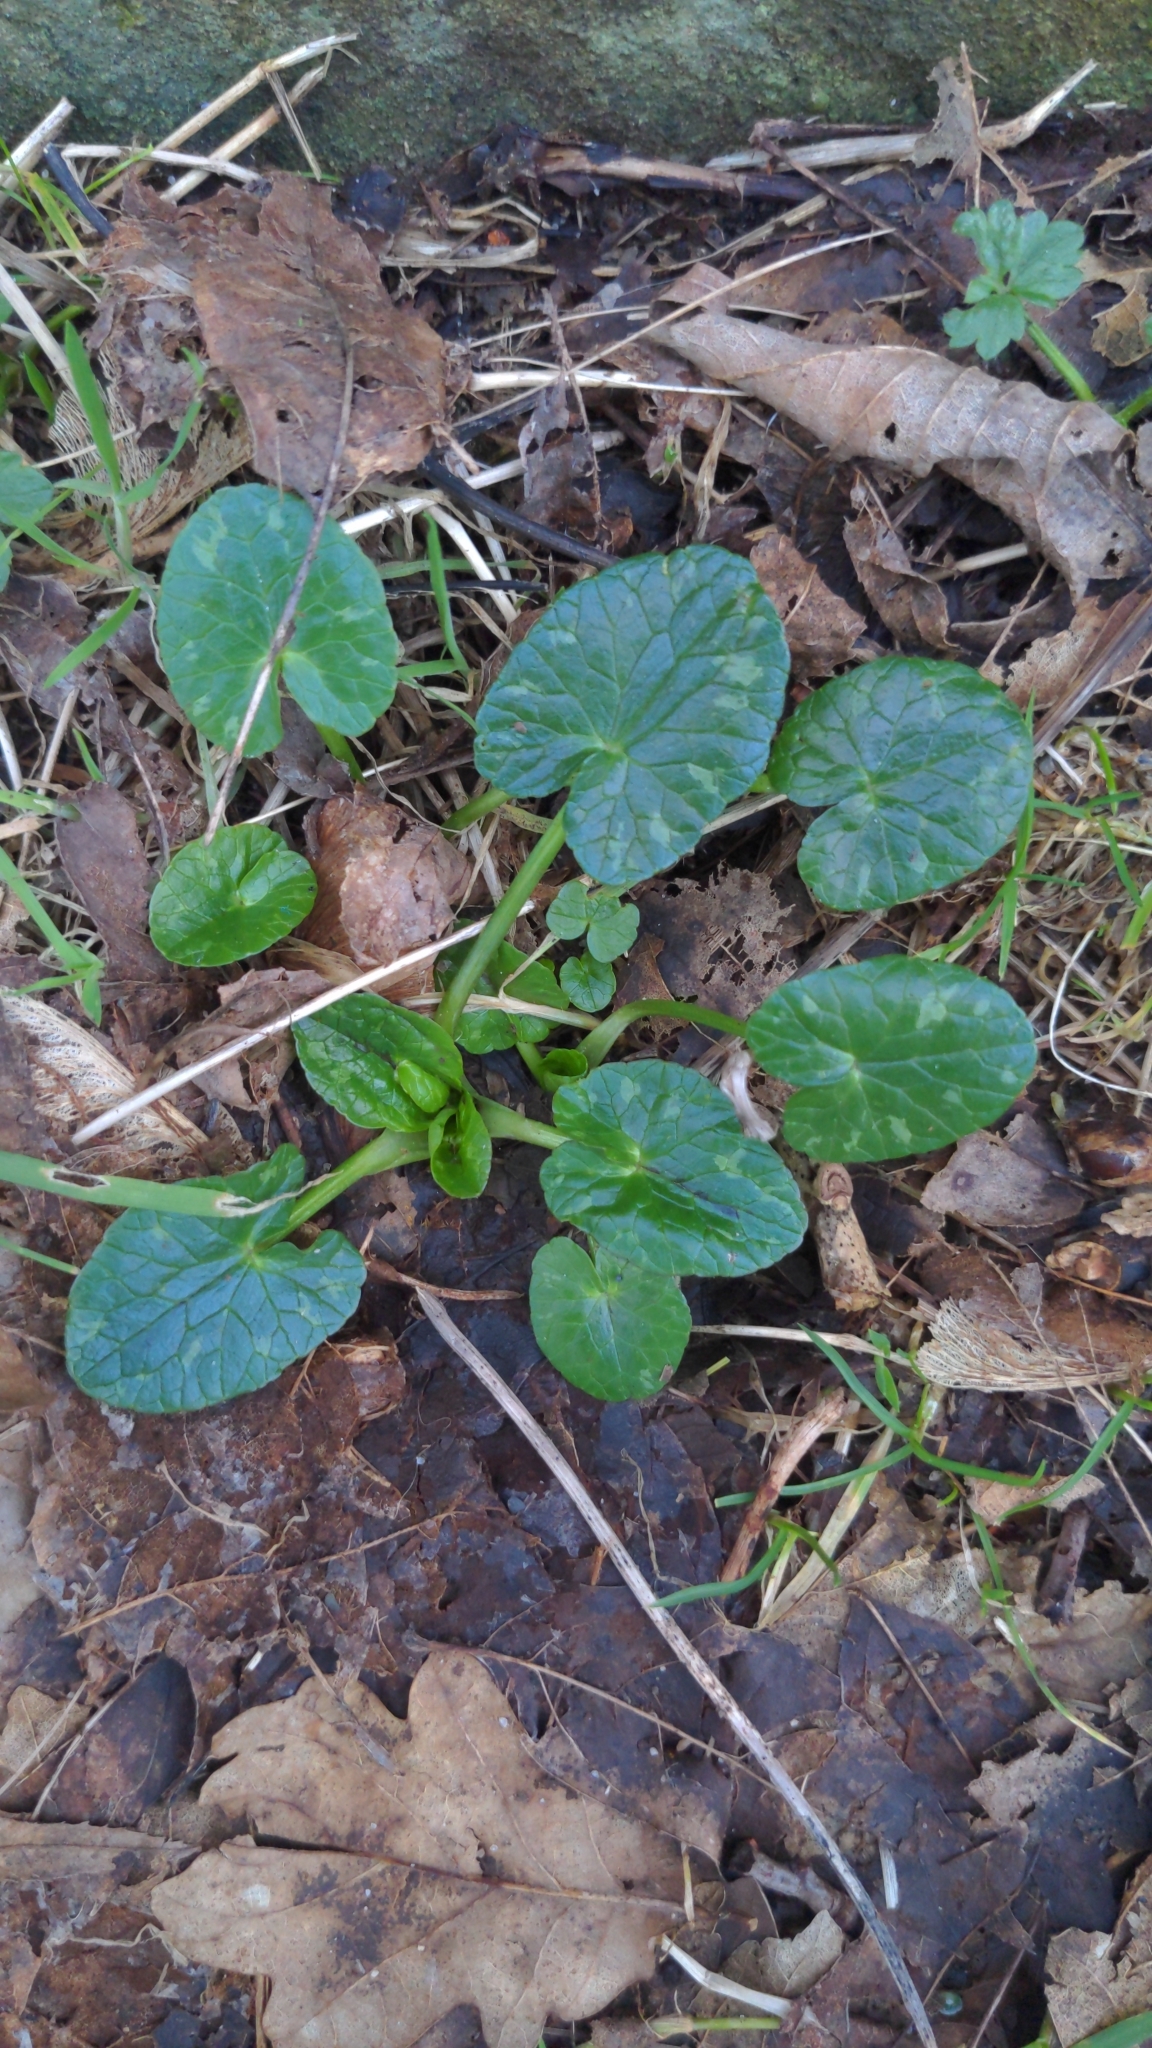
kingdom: Plantae
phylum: Tracheophyta
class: Magnoliopsida
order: Ranunculales
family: Ranunculaceae
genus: Ficaria
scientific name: Ficaria verna
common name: Lesser celandine
